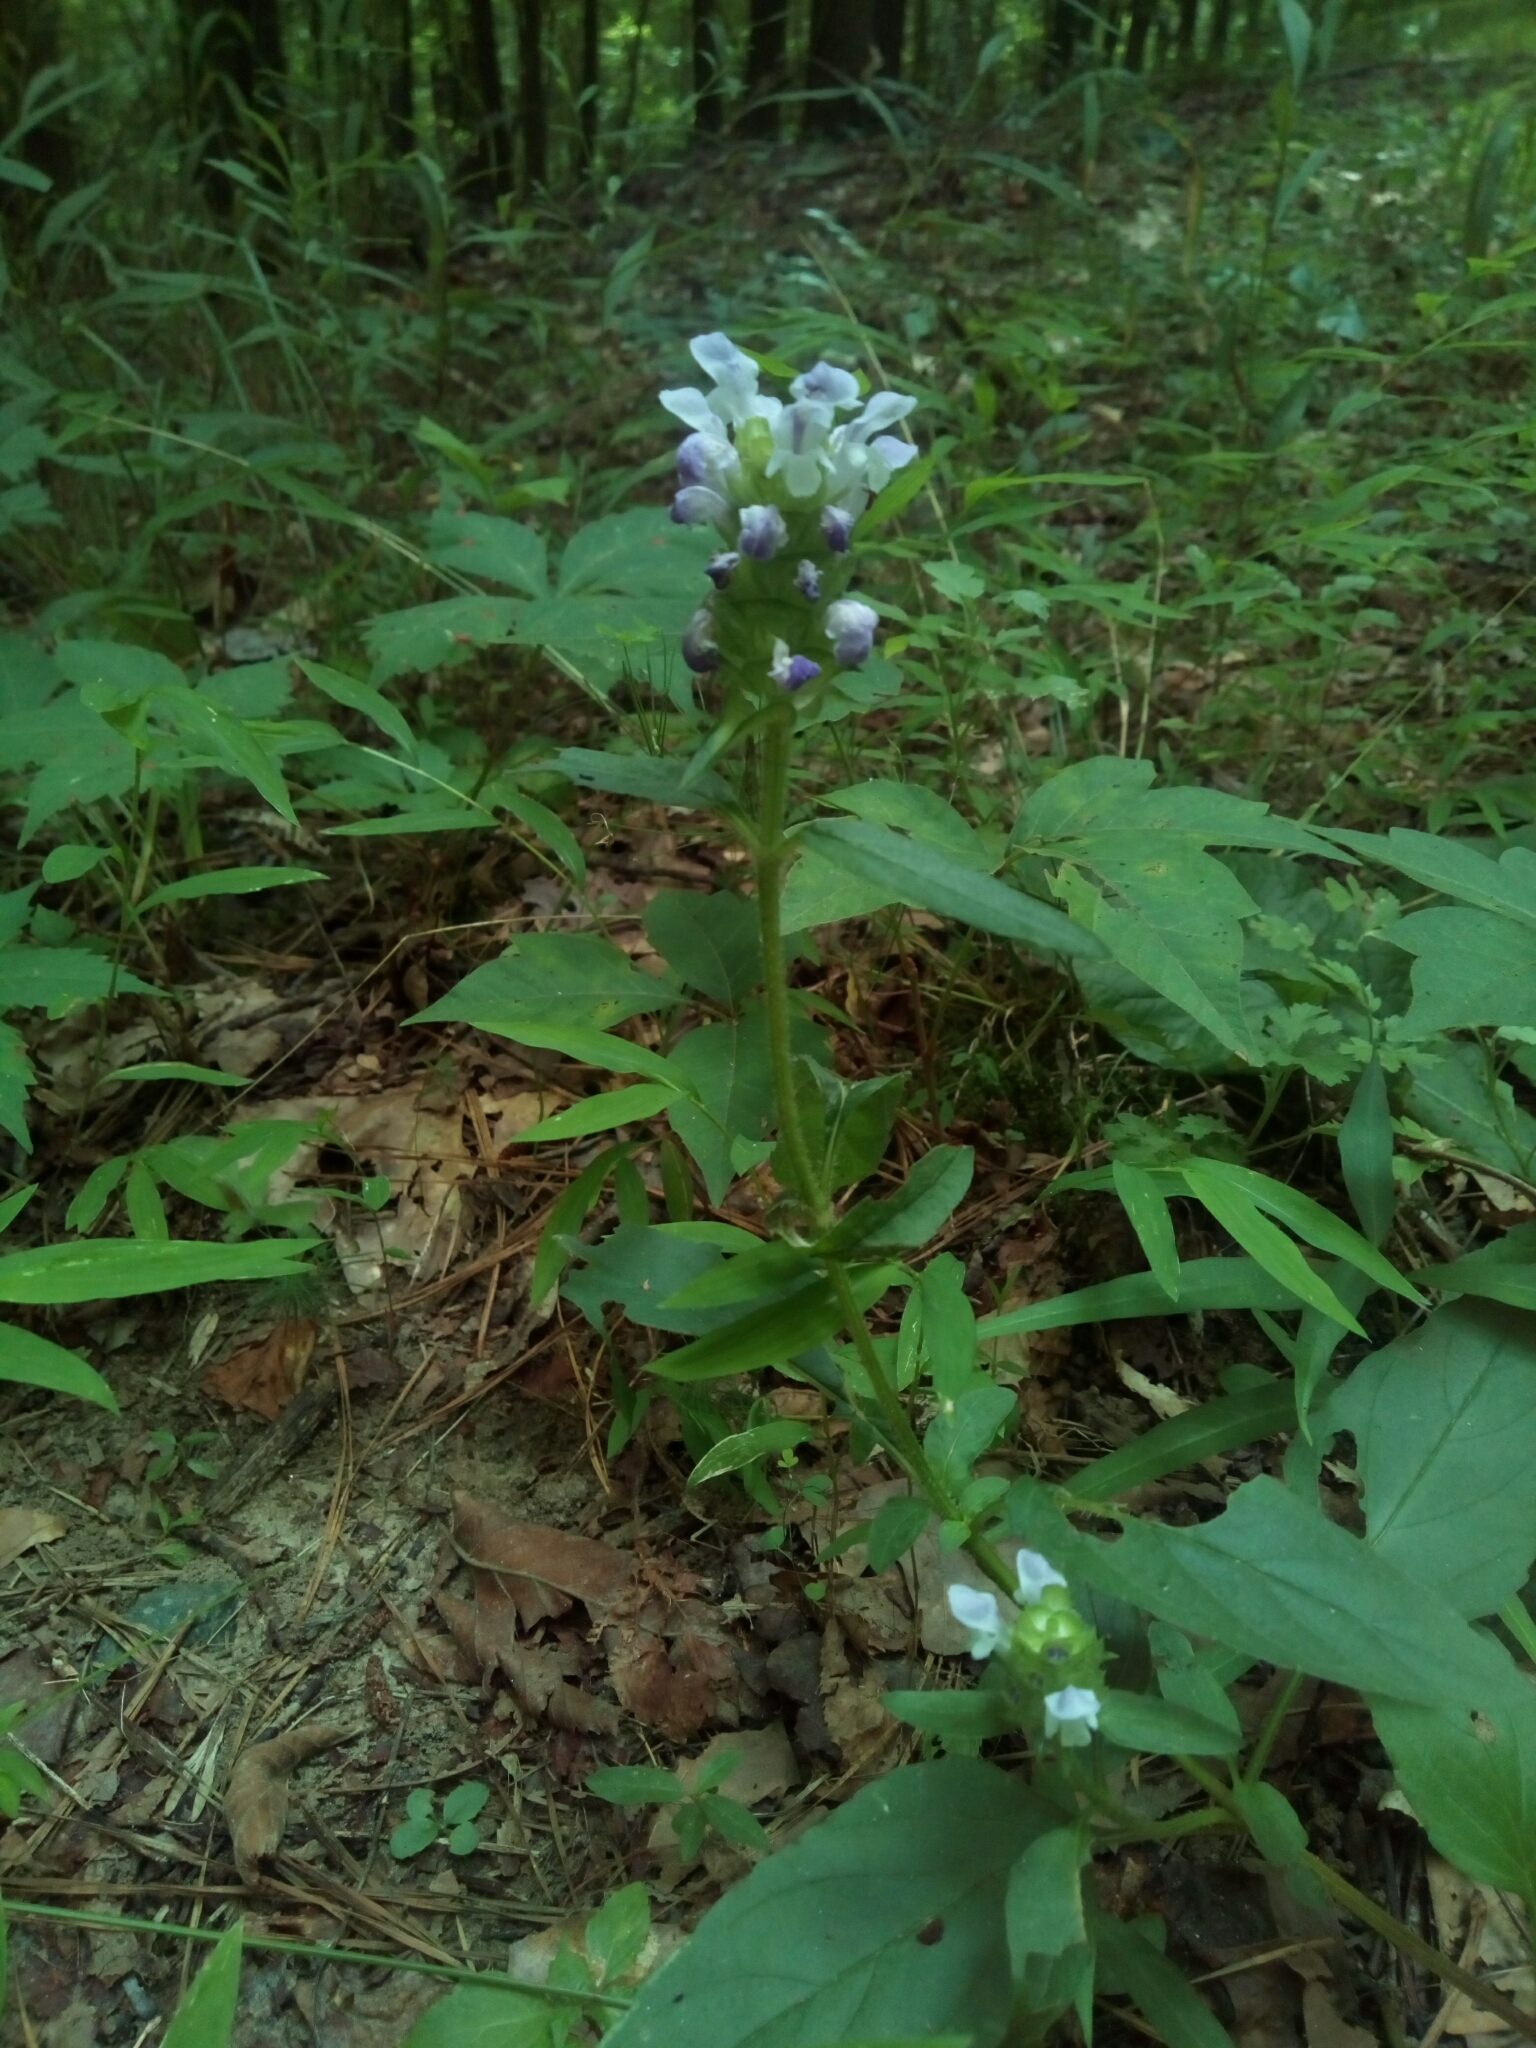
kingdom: Plantae
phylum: Tracheophyta
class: Magnoliopsida
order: Lamiales
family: Lamiaceae
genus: Prunella
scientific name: Prunella vulgaris
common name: Heal-all
